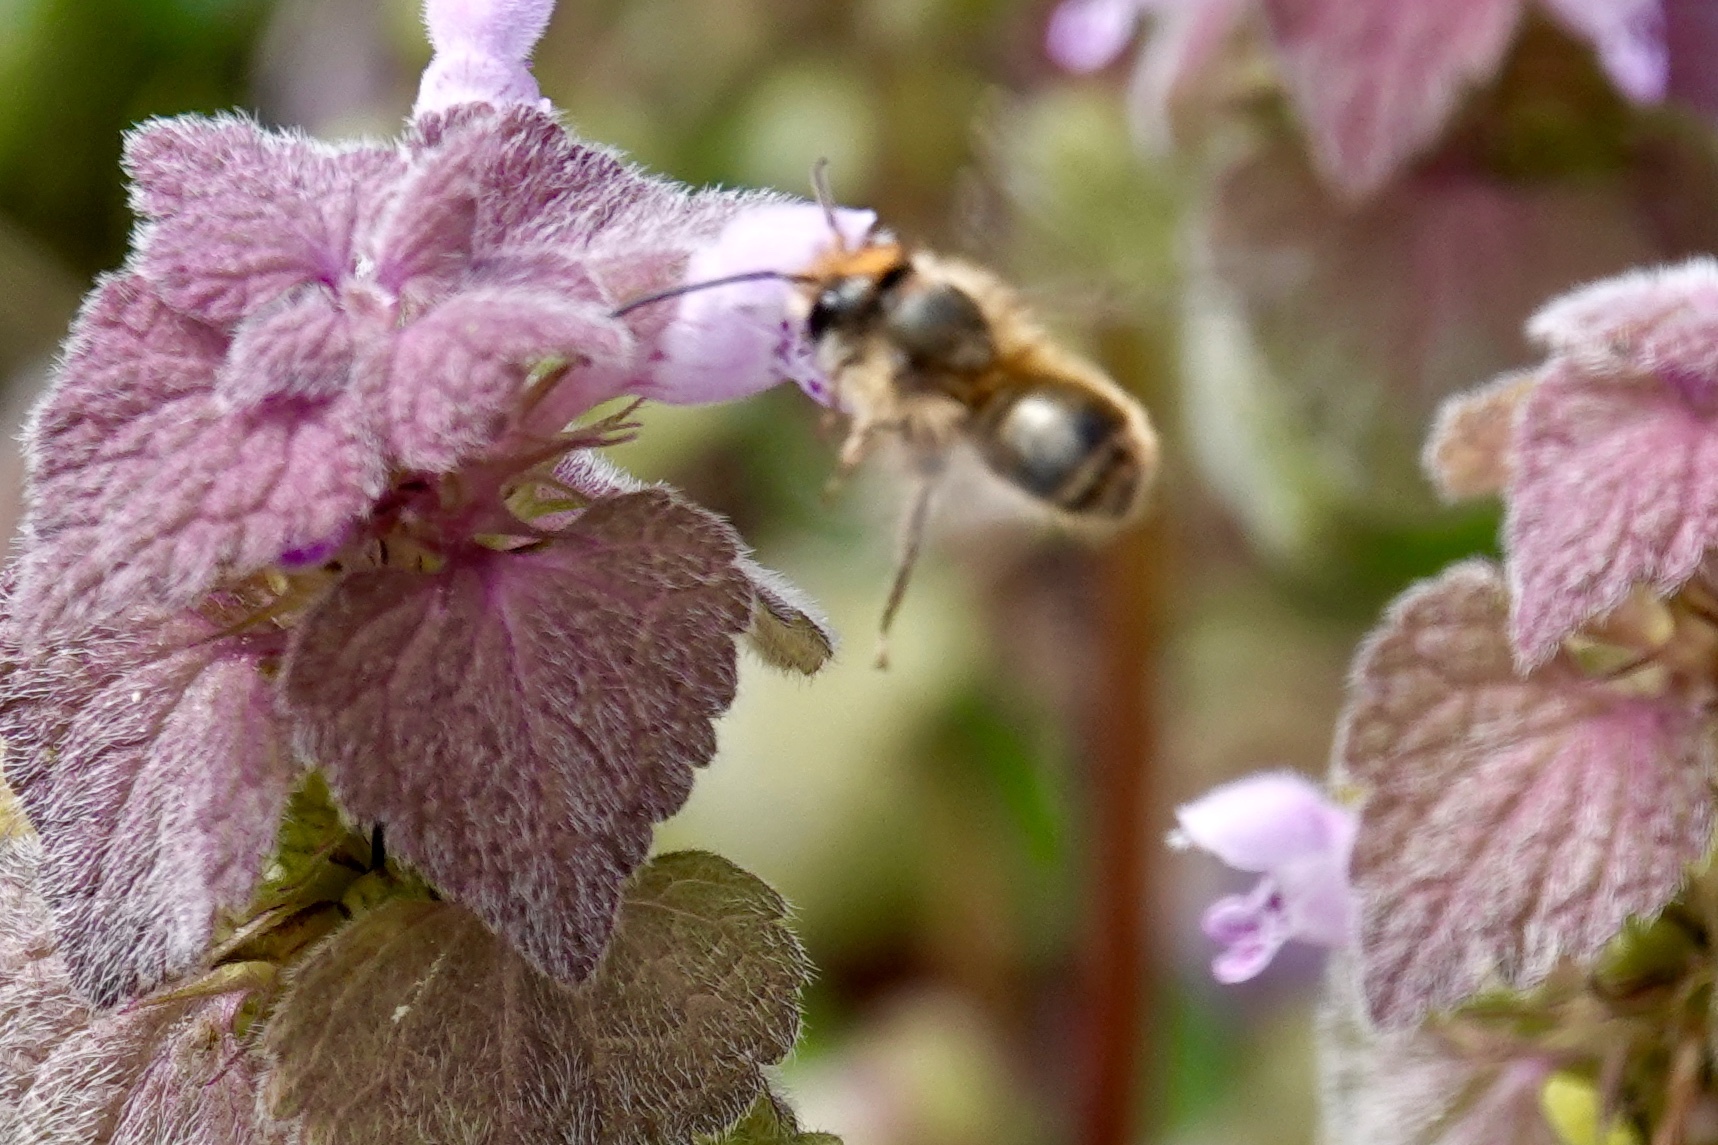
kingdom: Animalia
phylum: Arthropoda
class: Insecta
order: Hymenoptera
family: Megachilidae
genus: Osmia
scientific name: Osmia cornifrons
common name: Horn-faced bee
